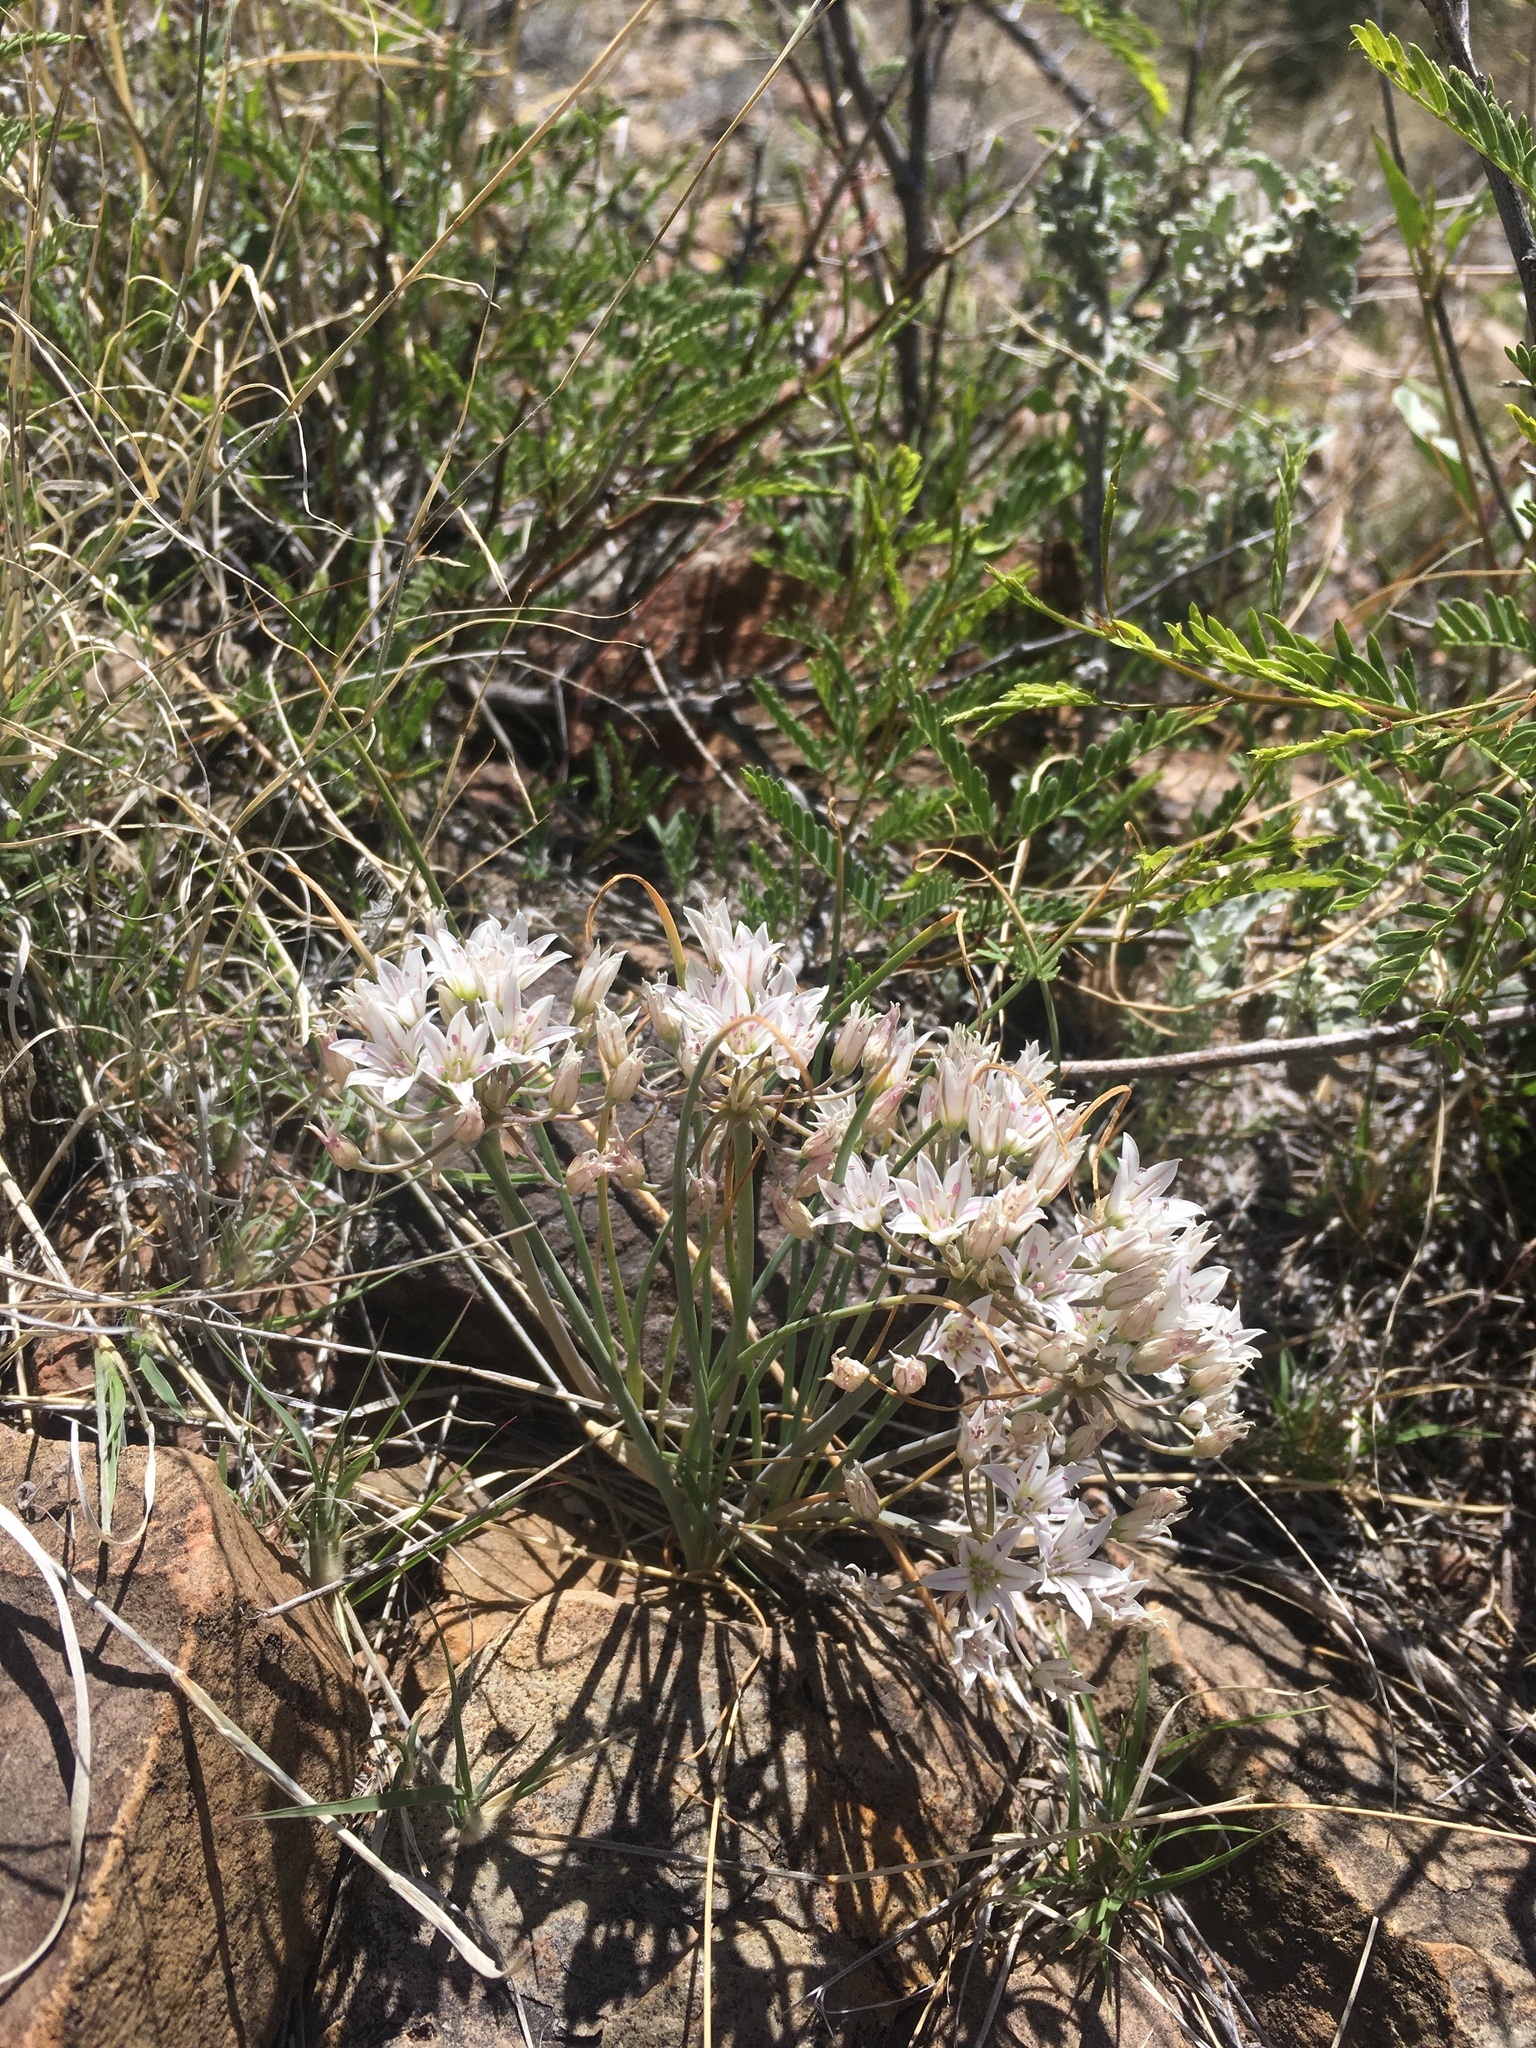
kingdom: Plantae
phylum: Tracheophyta
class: Liliopsida
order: Asparagales
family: Amaryllidaceae
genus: Allium
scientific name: Allium macropetalum
